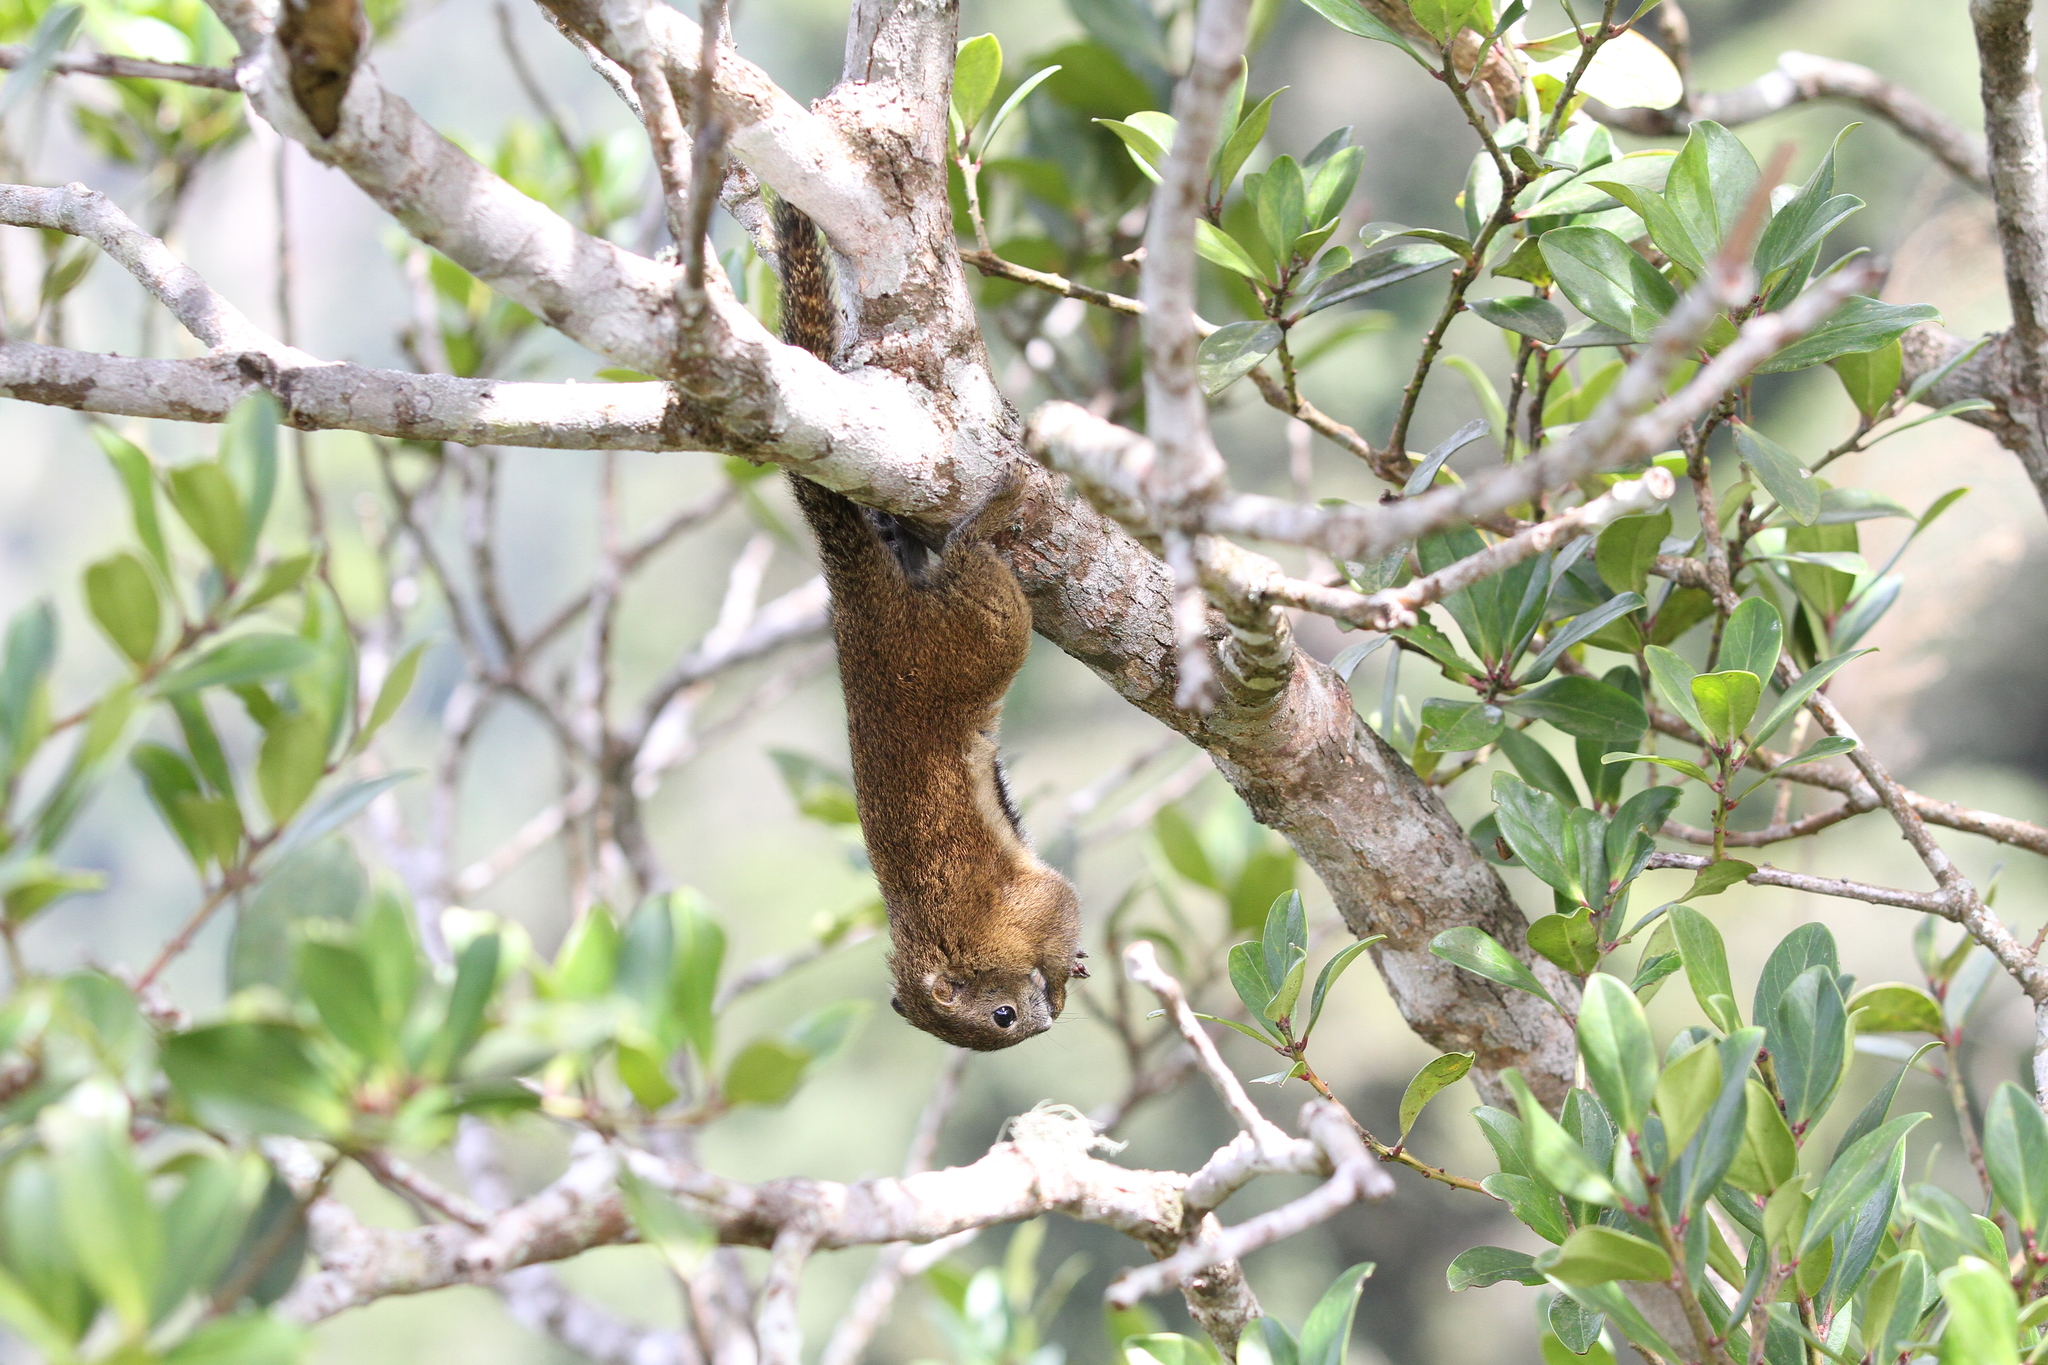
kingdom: Animalia
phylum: Chordata
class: Mammalia
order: Rodentia
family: Sciuridae
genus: Callosciurus
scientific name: Callosciurus orestes
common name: Borneo black-banded squirrel
